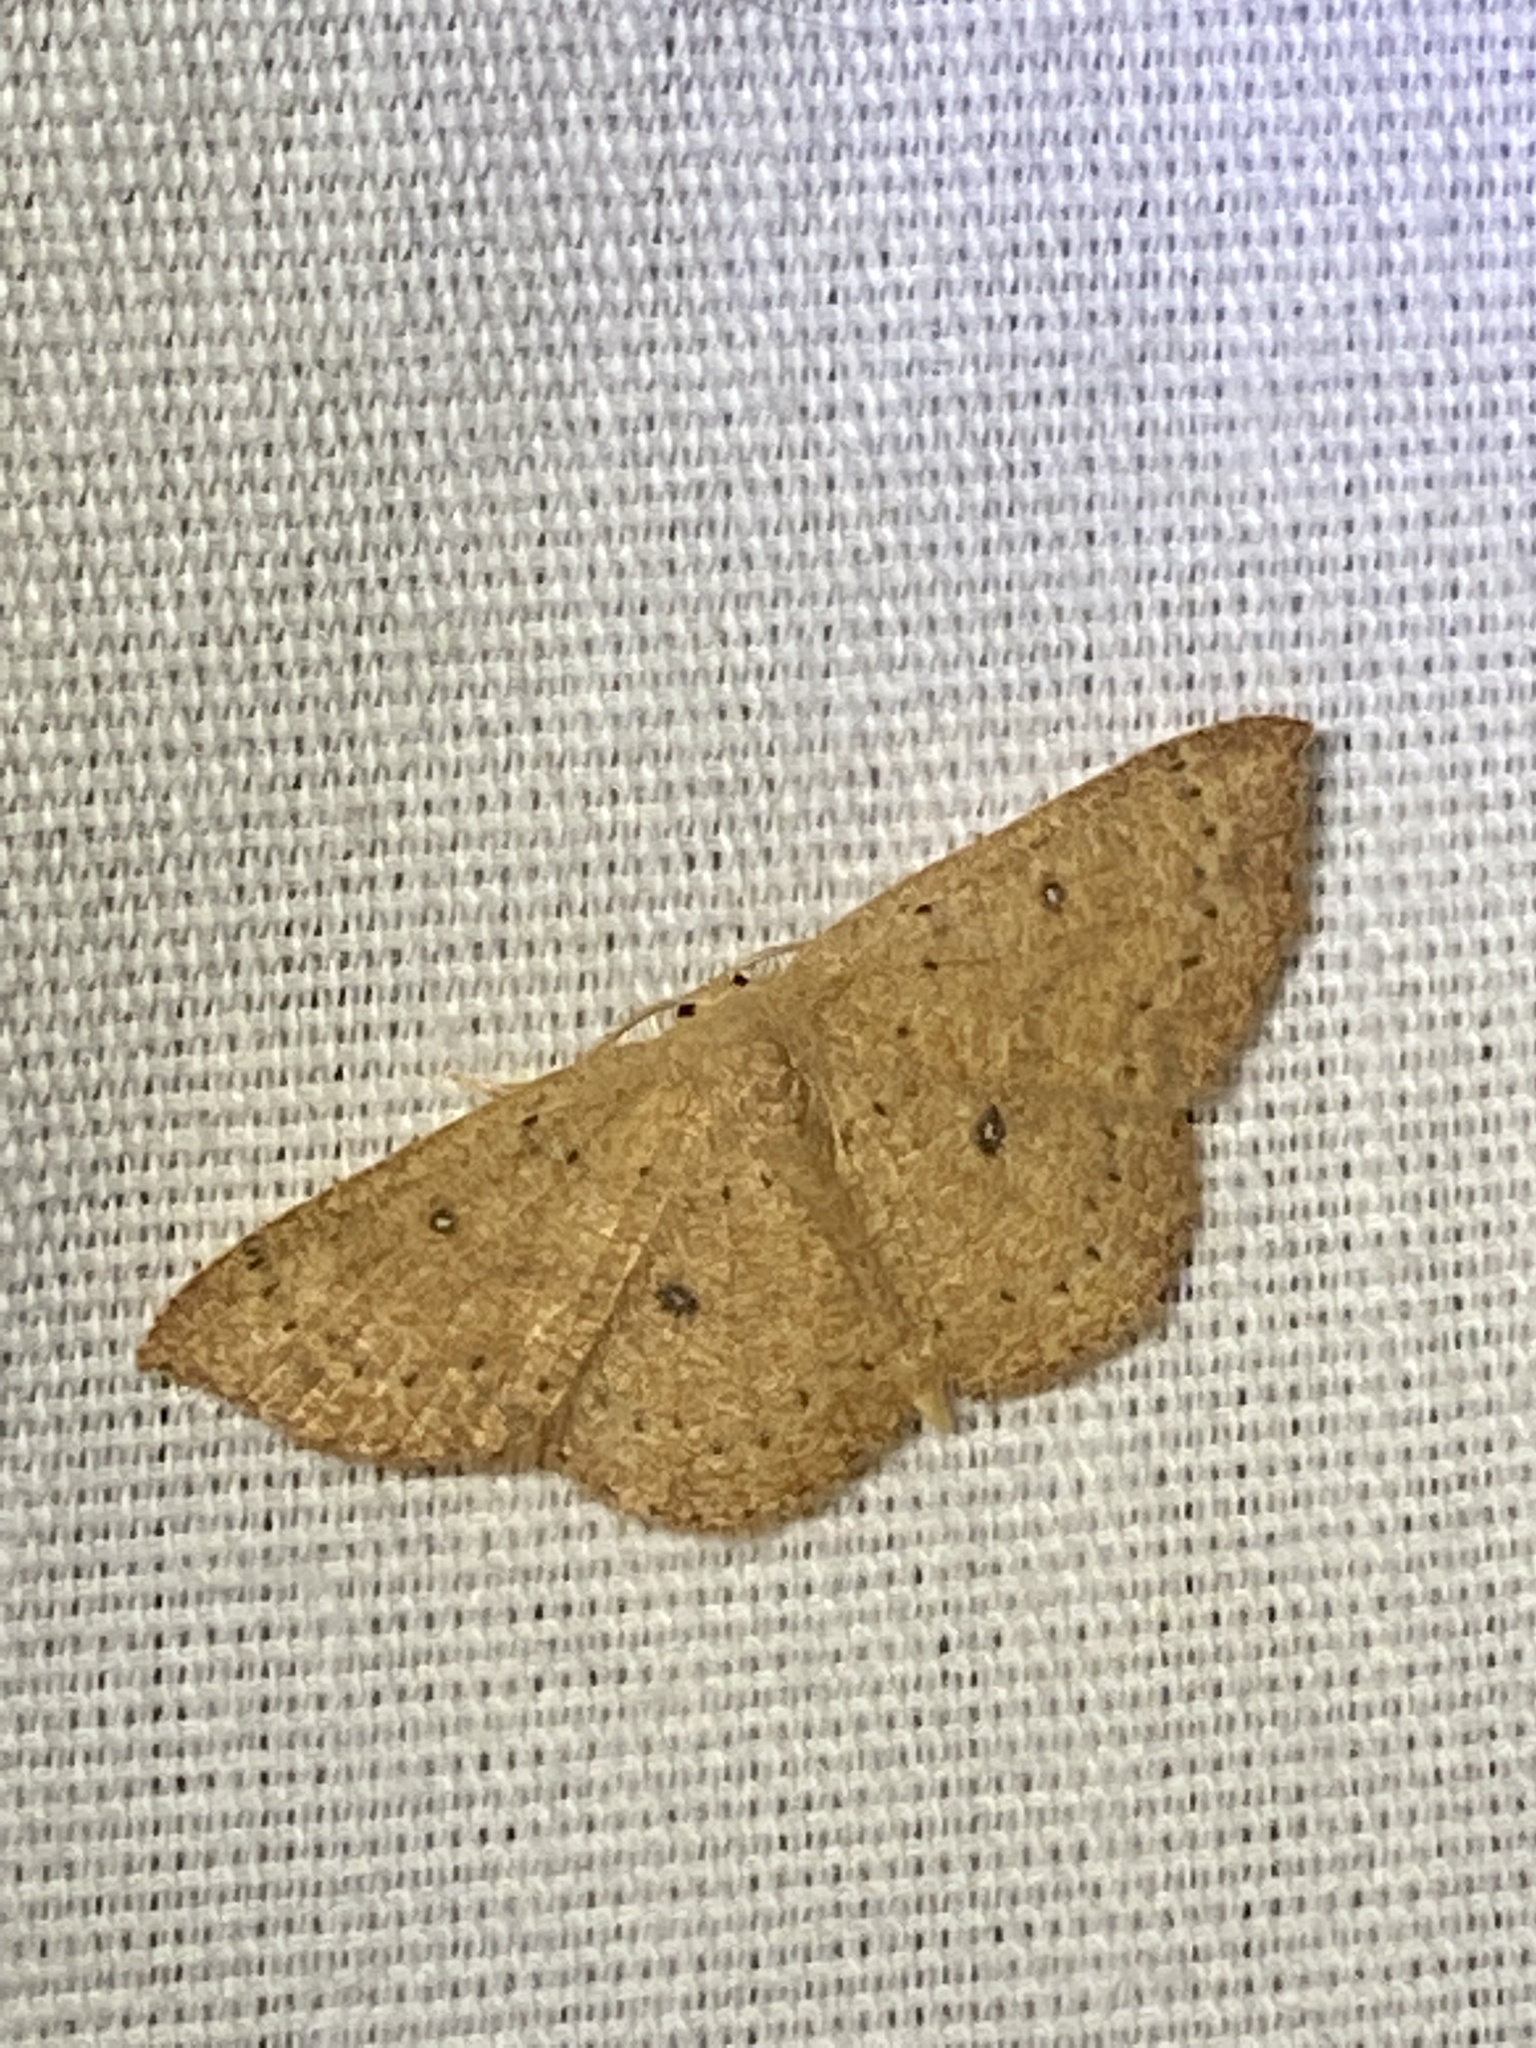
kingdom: Animalia
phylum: Arthropoda
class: Insecta
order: Lepidoptera
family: Geometridae
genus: Cyclophora
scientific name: Cyclophora packardi
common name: Packard's wave
